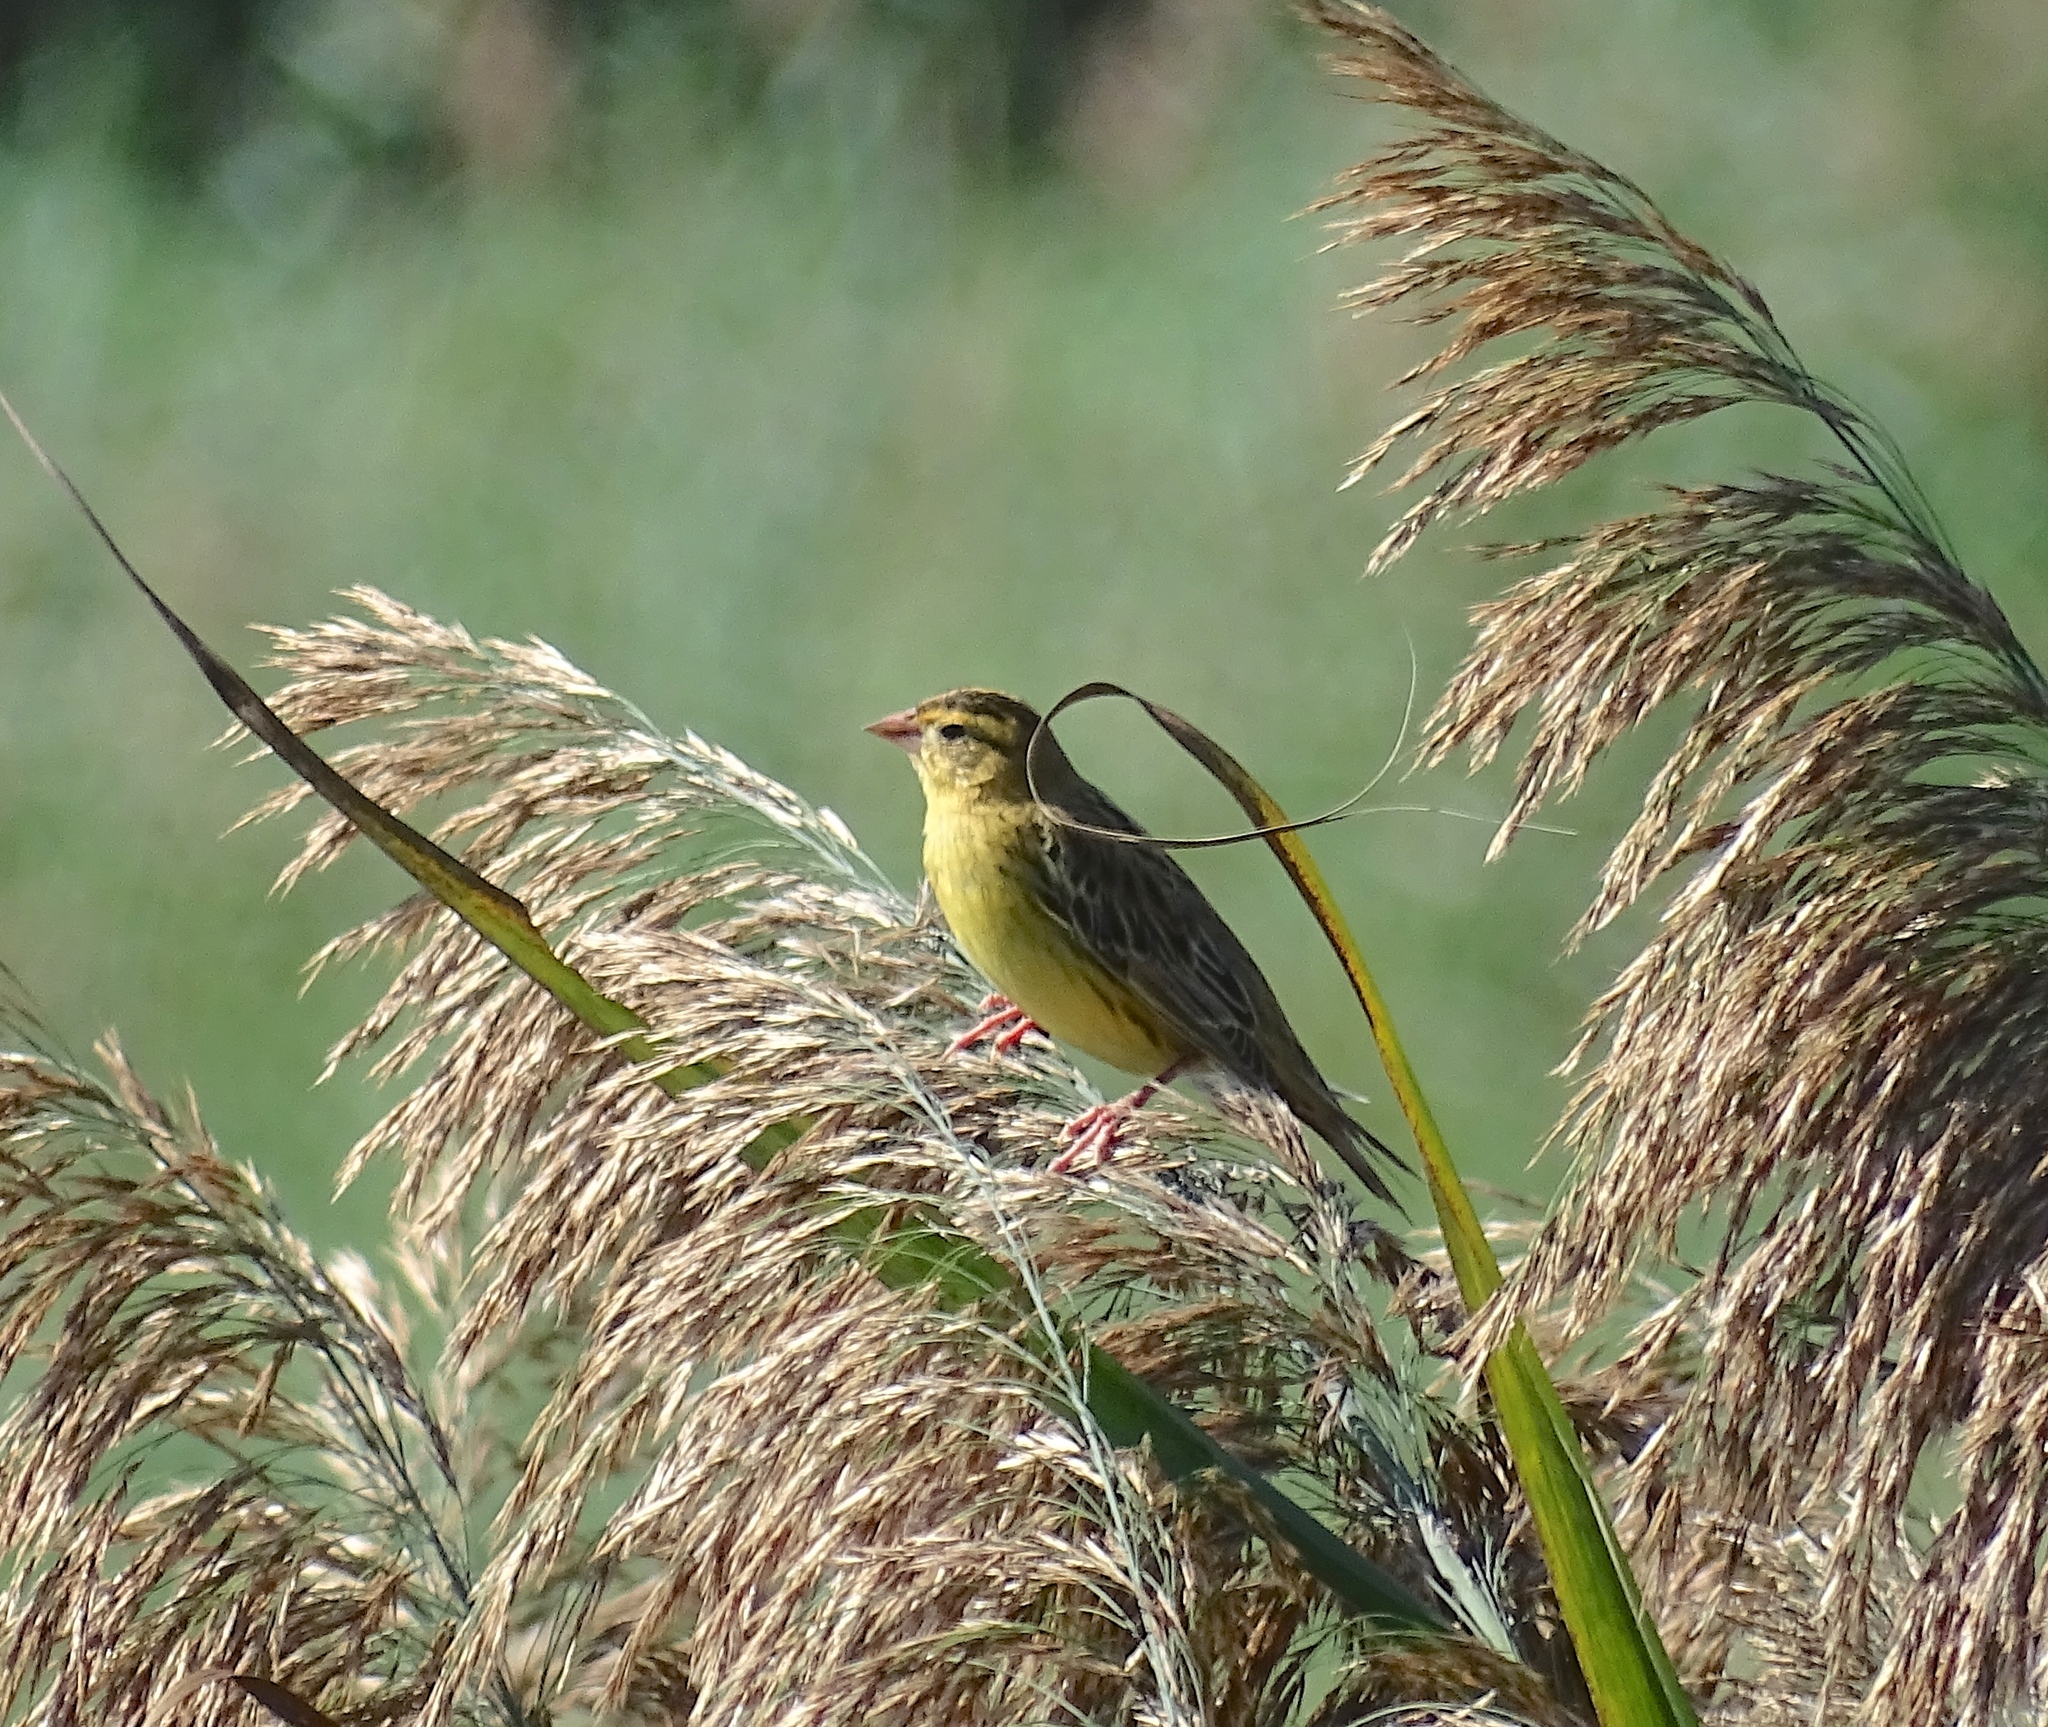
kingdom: Animalia
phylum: Chordata
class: Aves
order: Passeriformes
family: Icteridae
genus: Dolichonyx
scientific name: Dolichonyx oryzivorus
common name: Bobolink
